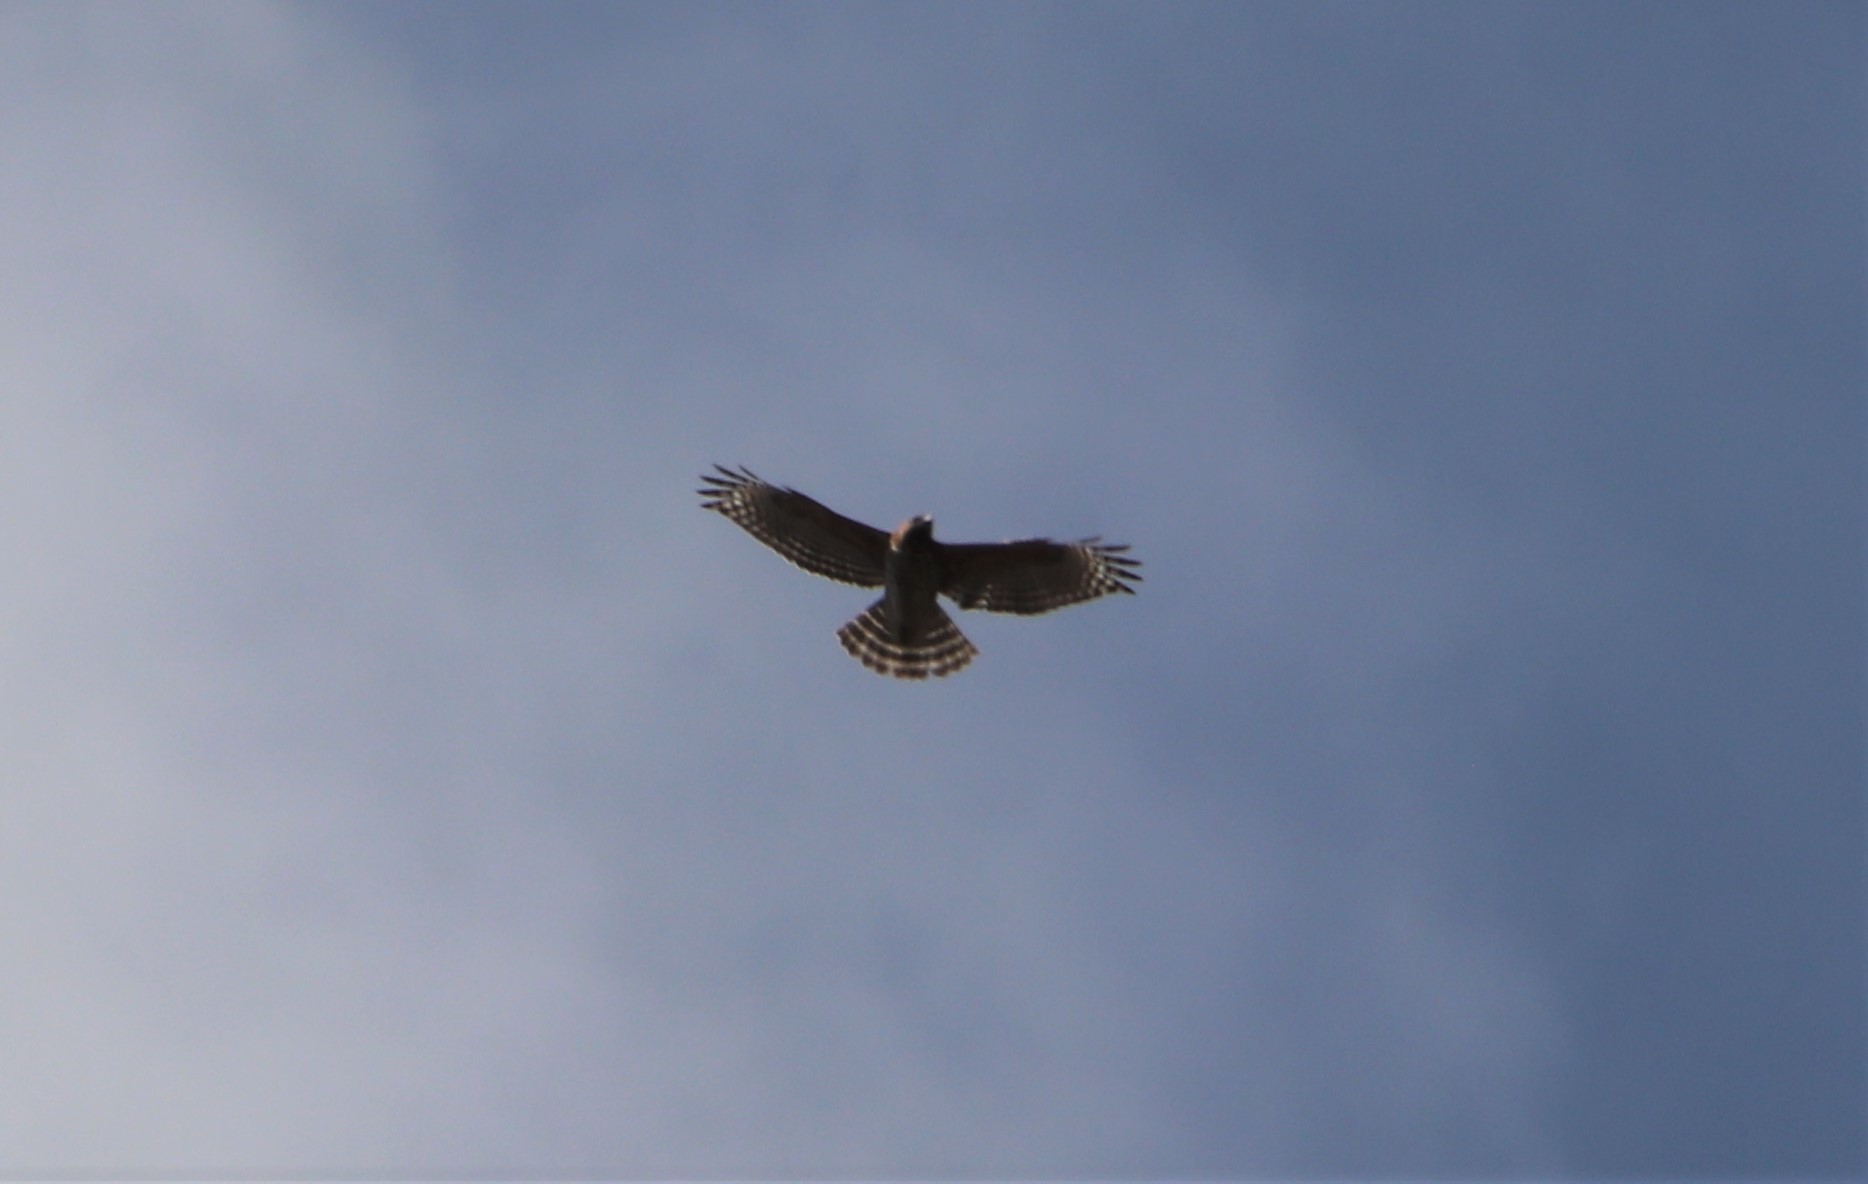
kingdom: Animalia
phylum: Chordata
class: Aves
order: Accipitriformes
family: Accipitridae
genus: Buteo
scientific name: Buteo lineatus
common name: Red-shouldered hawk
